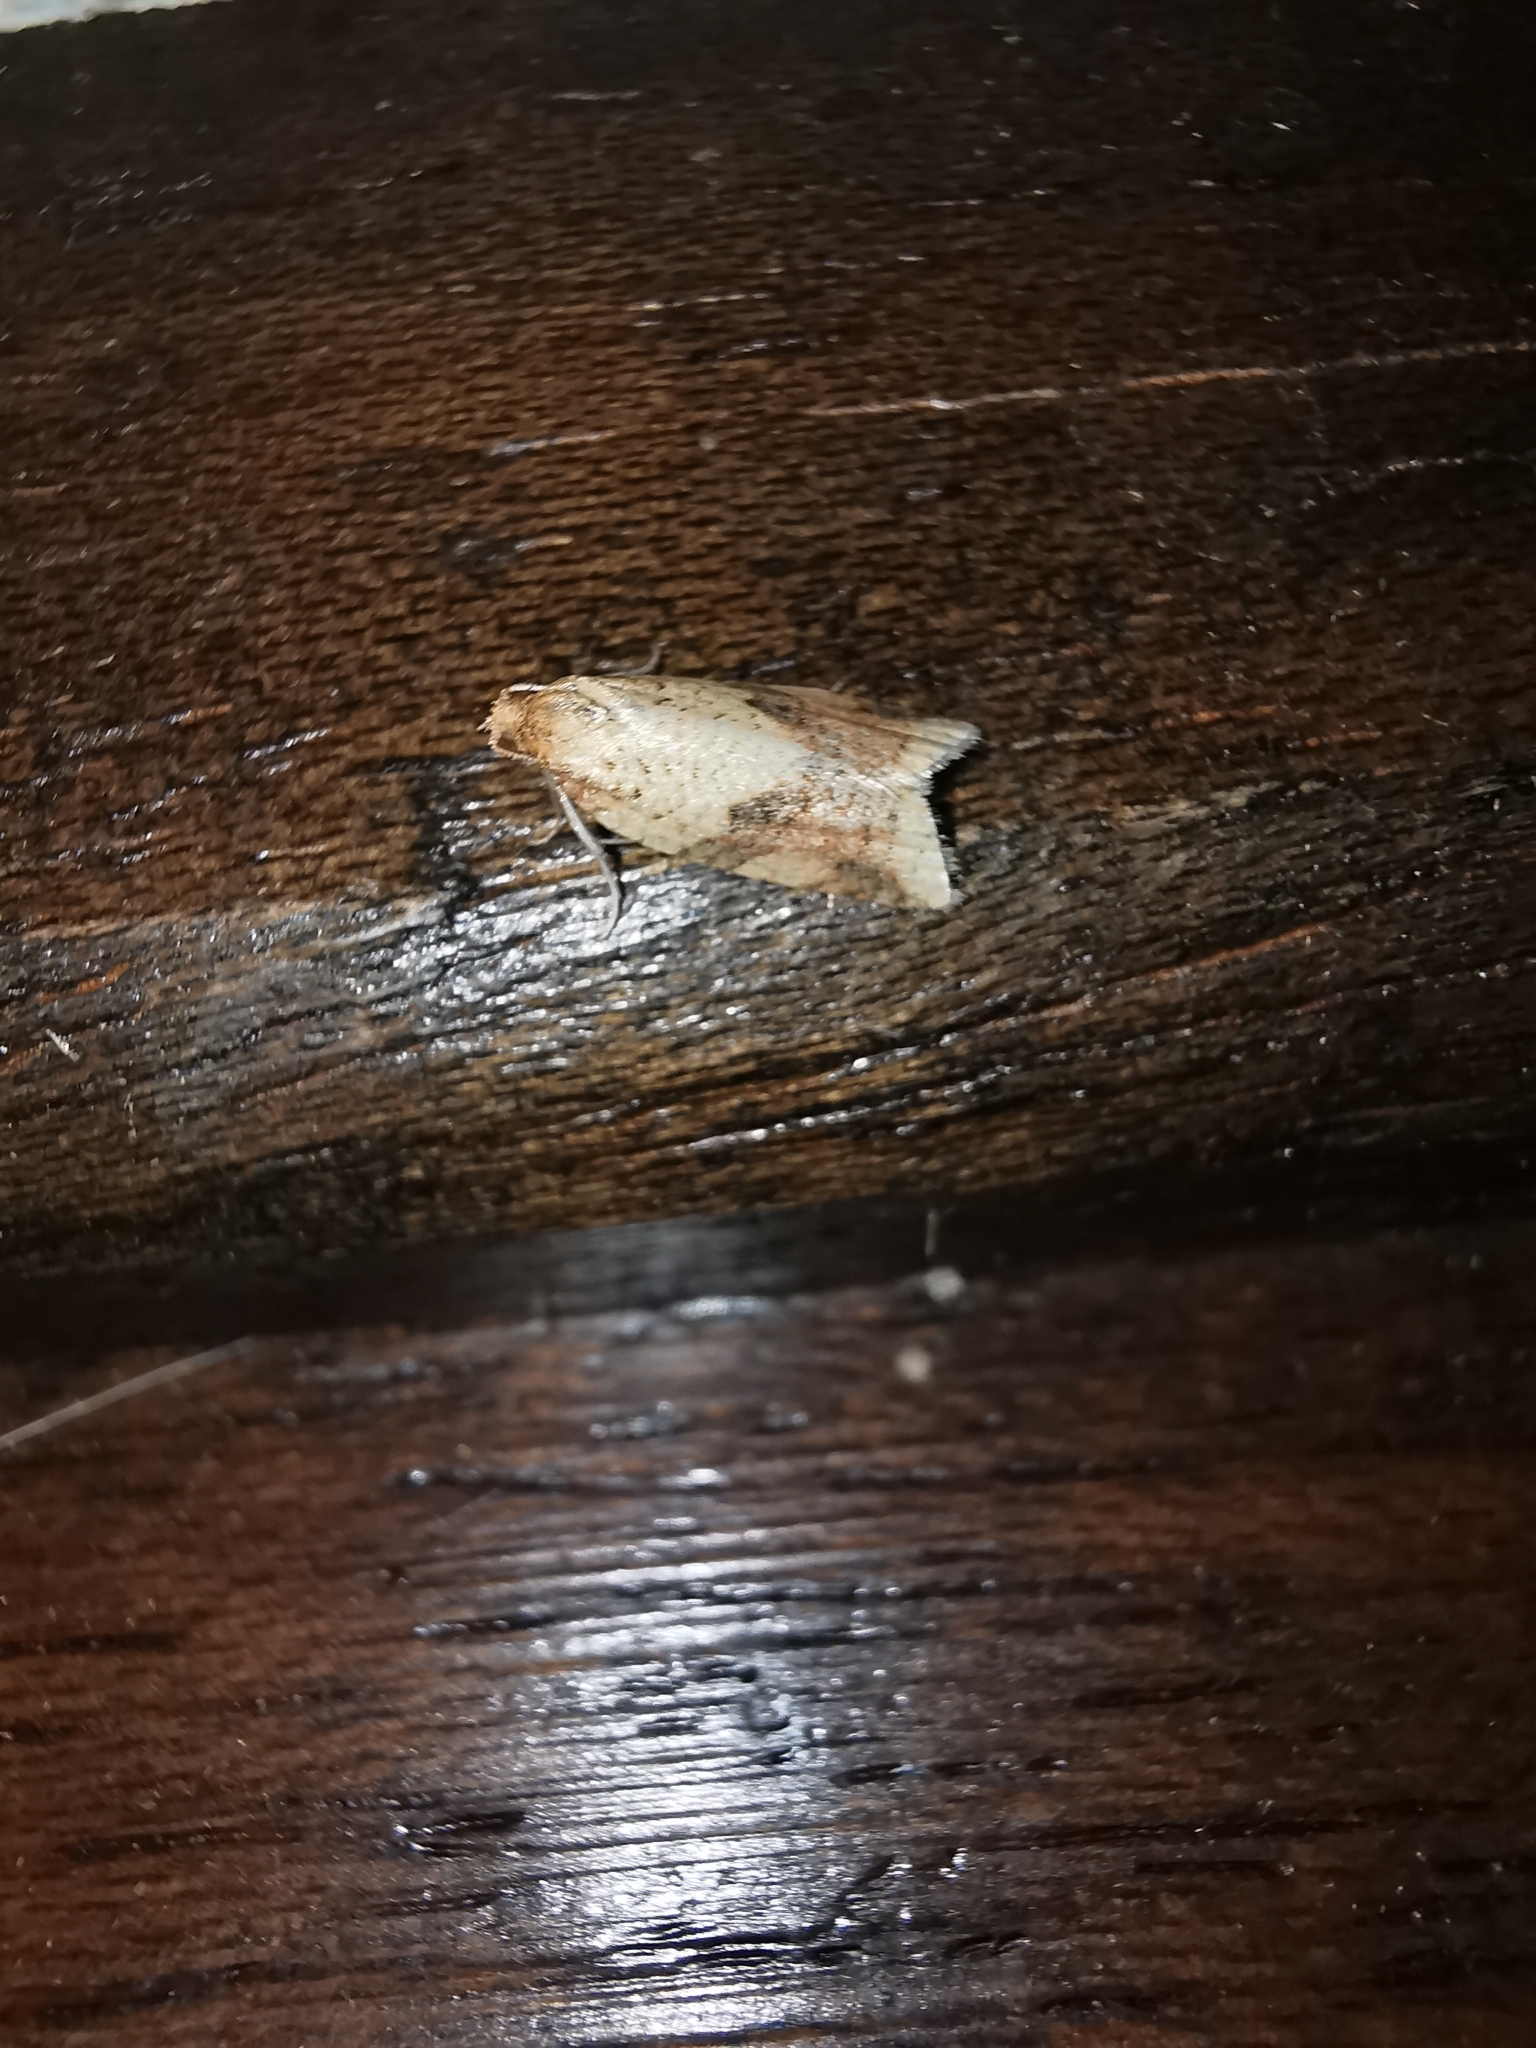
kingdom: Animalia
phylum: Arthropoda
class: Insecta
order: Lepidoptera
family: Tortricidae
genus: Clepsis
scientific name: Clepsis consimilana
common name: Privet tortrix
